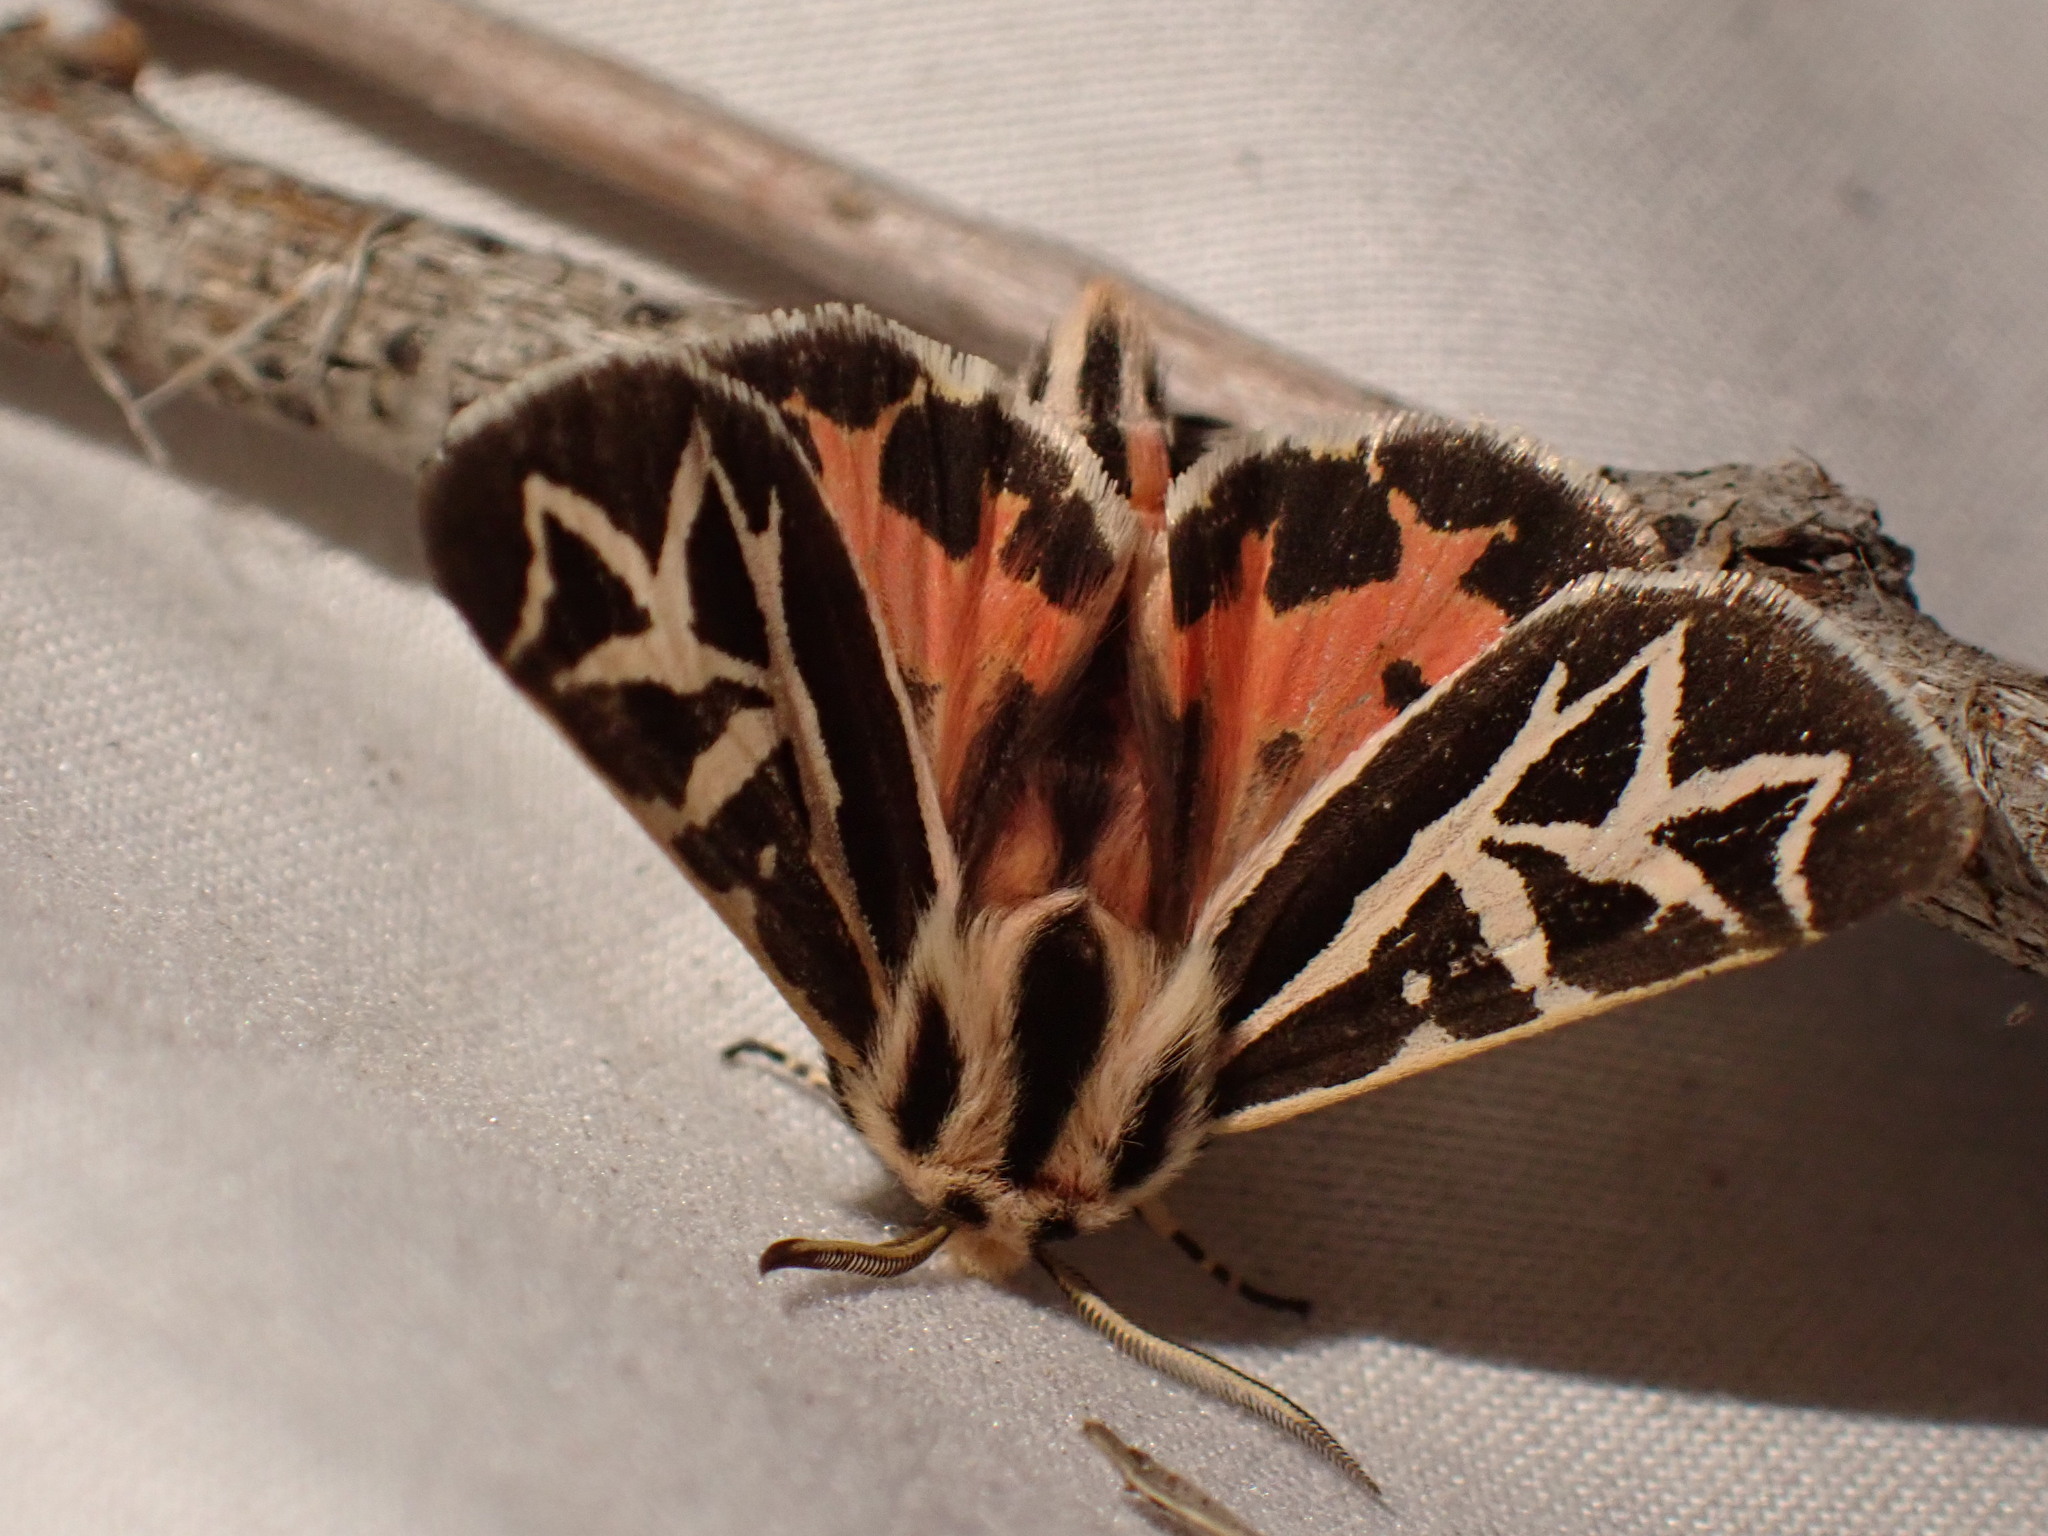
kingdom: Animalia
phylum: Arthropoda
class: Insecta
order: Lepidoptera
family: Erebidae
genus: Apantesis
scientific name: Apantesis
